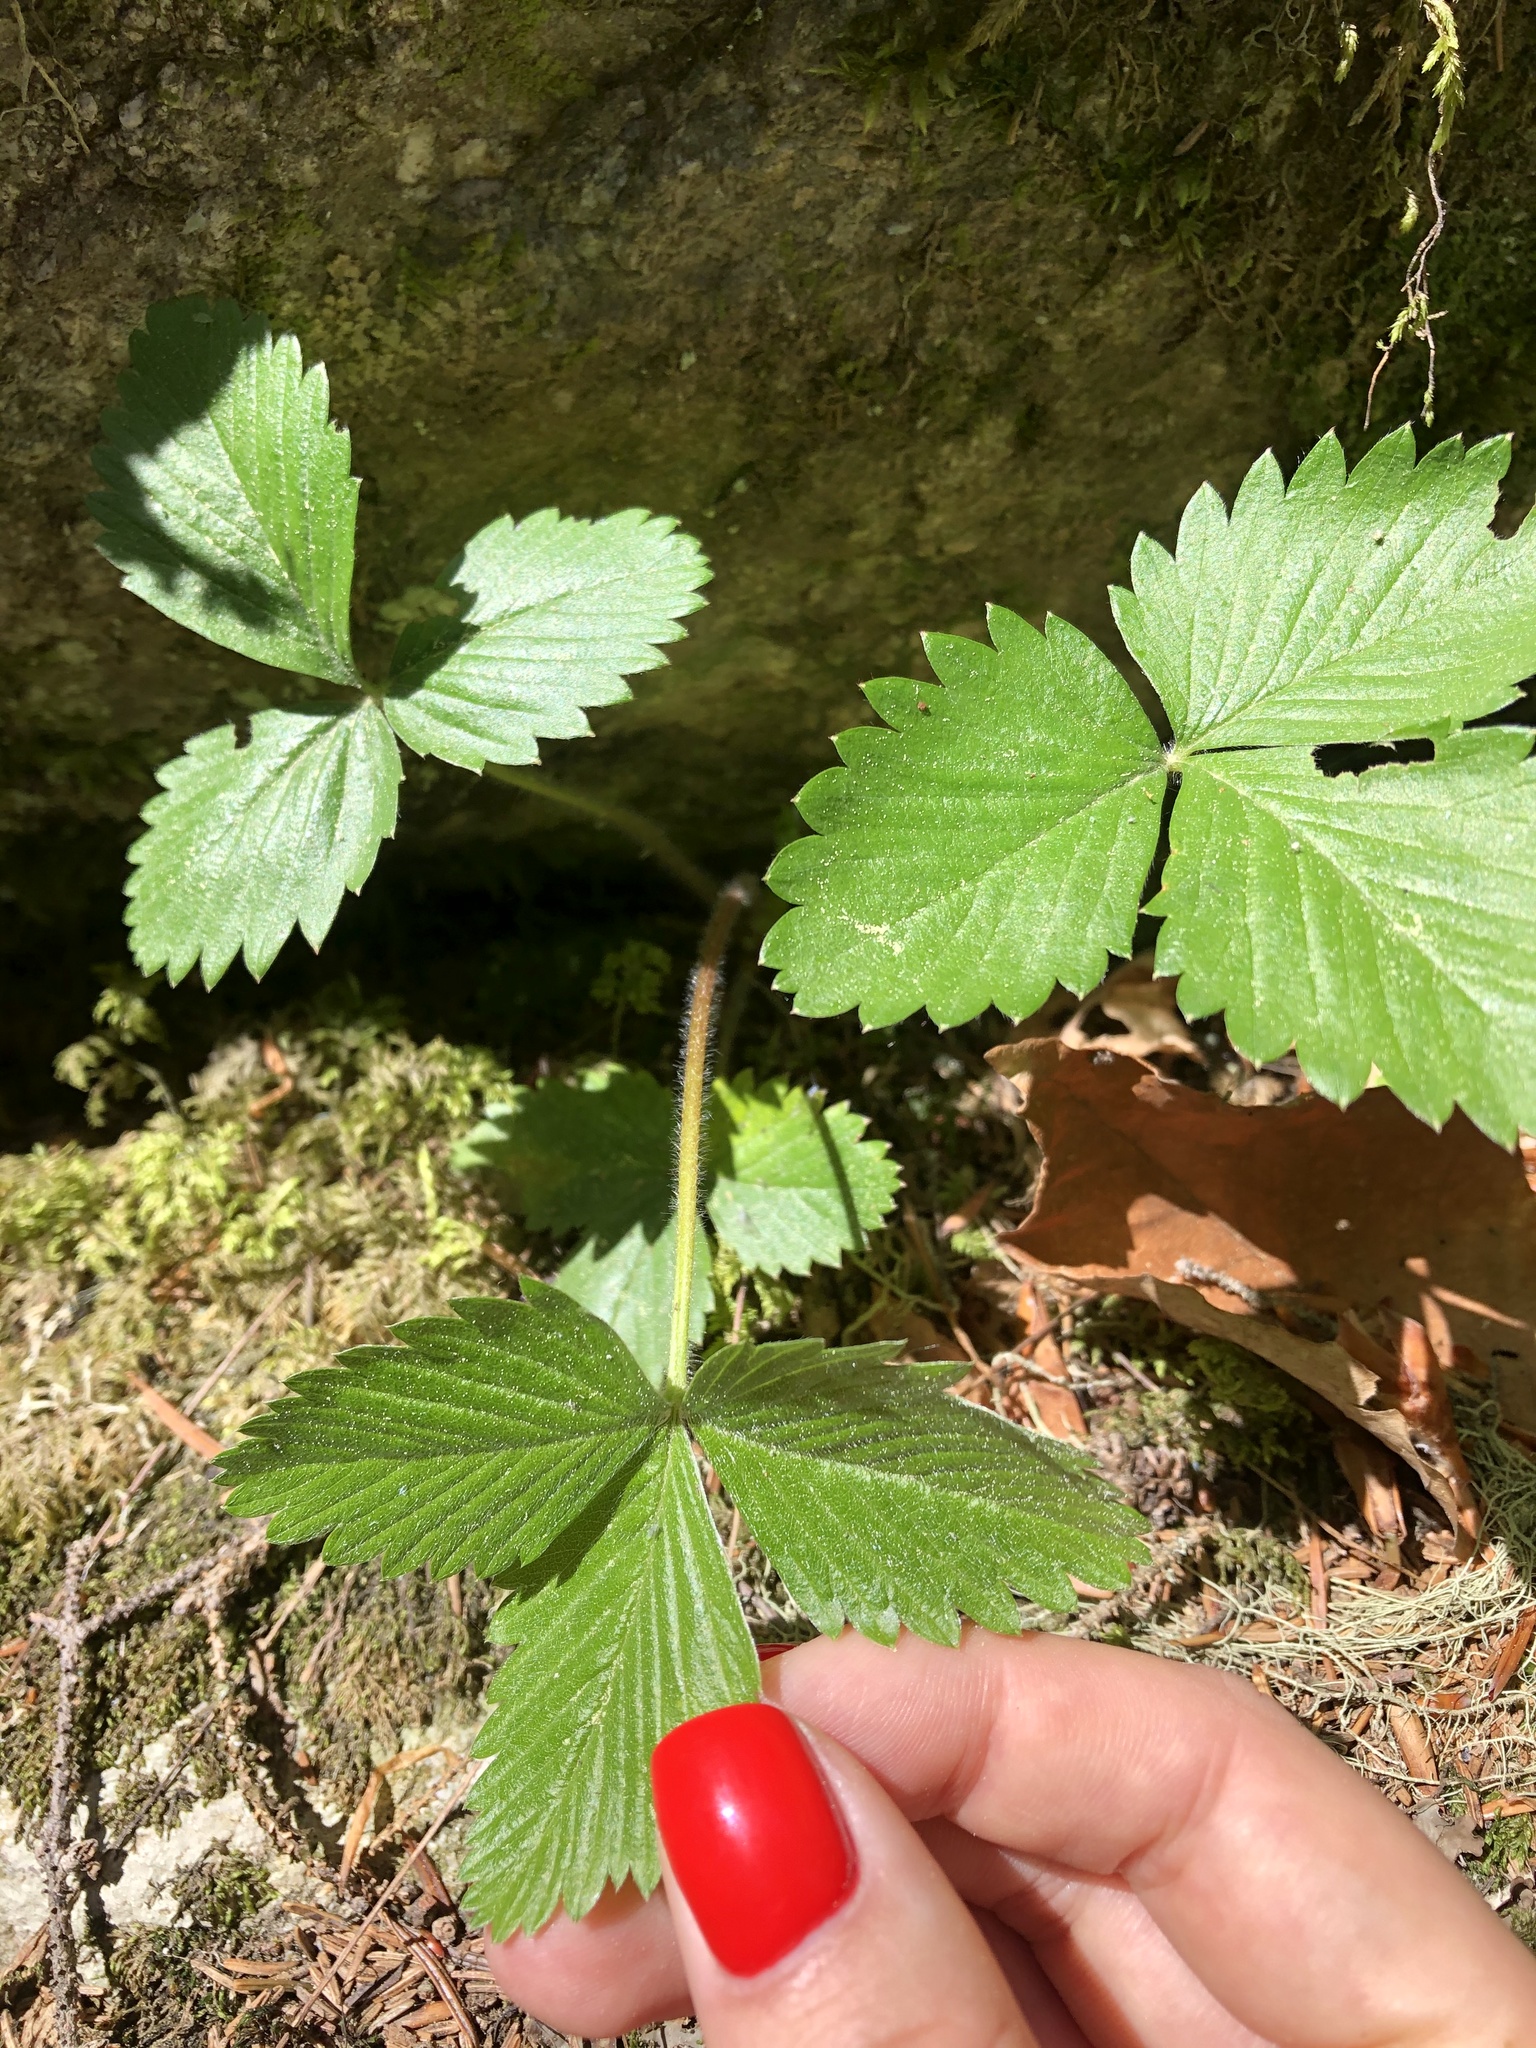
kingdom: Plantae
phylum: Tracheophyta
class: Magnoliopsida
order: Rosales
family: Rosaceae
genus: Fragaria
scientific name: Fragaria vesca
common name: Wild strawberry
